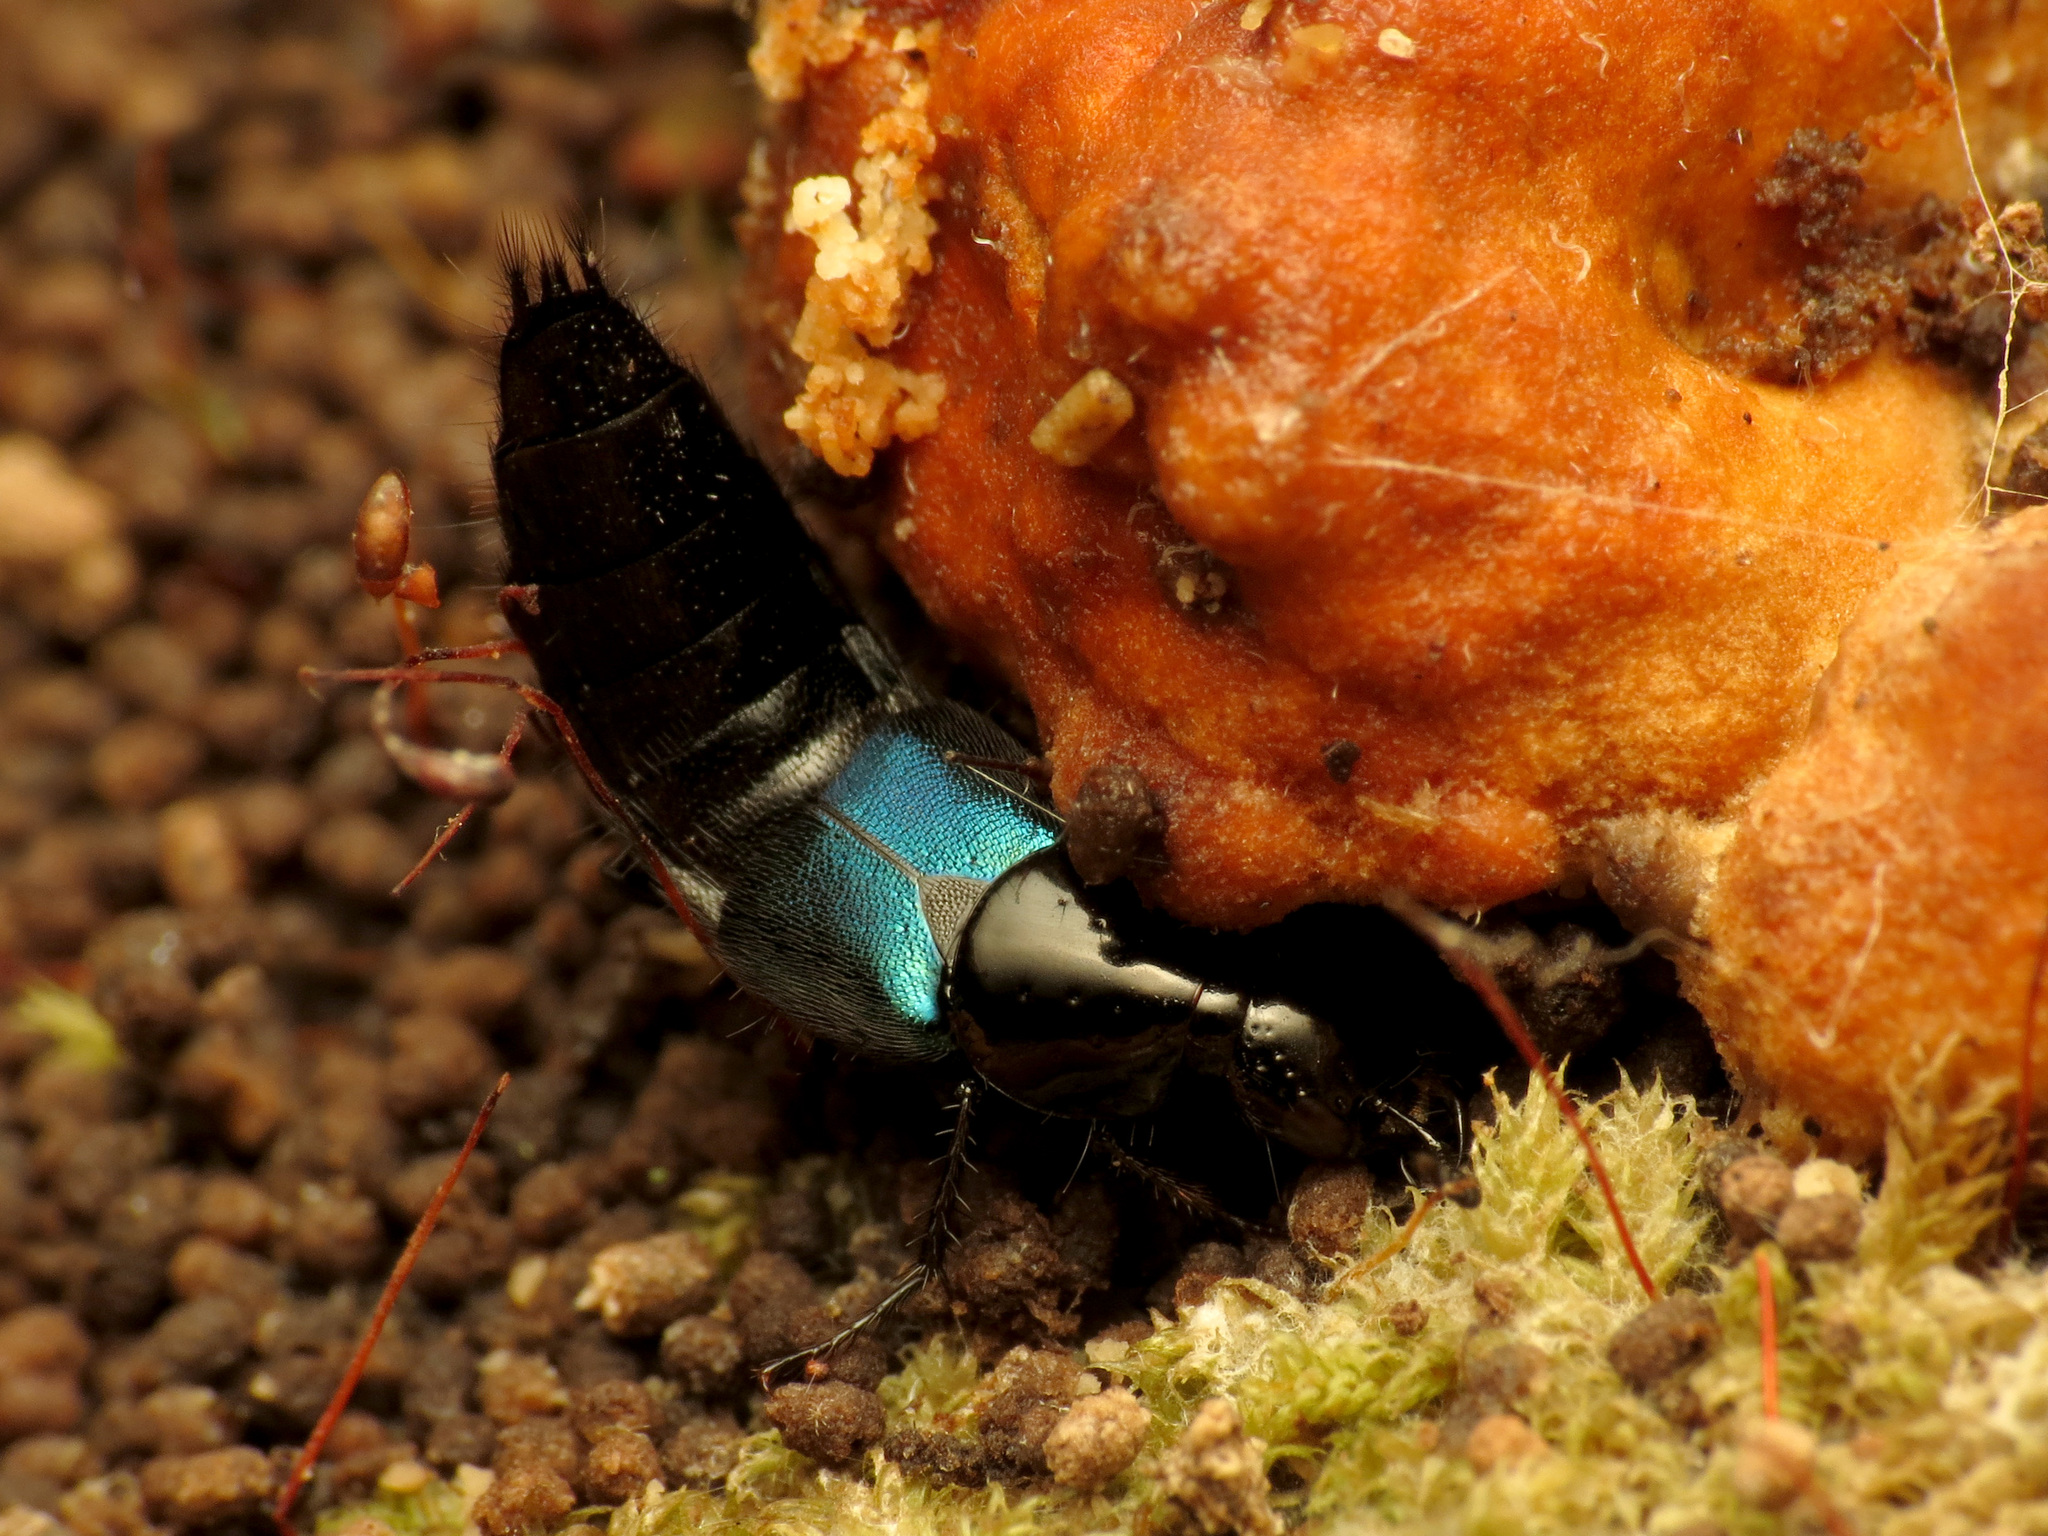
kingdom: Animalia
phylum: Arthropoda
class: Insecta
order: Coleoptera
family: Staphylinidae
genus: Philonthus
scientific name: Philonthus caeruleipennis
